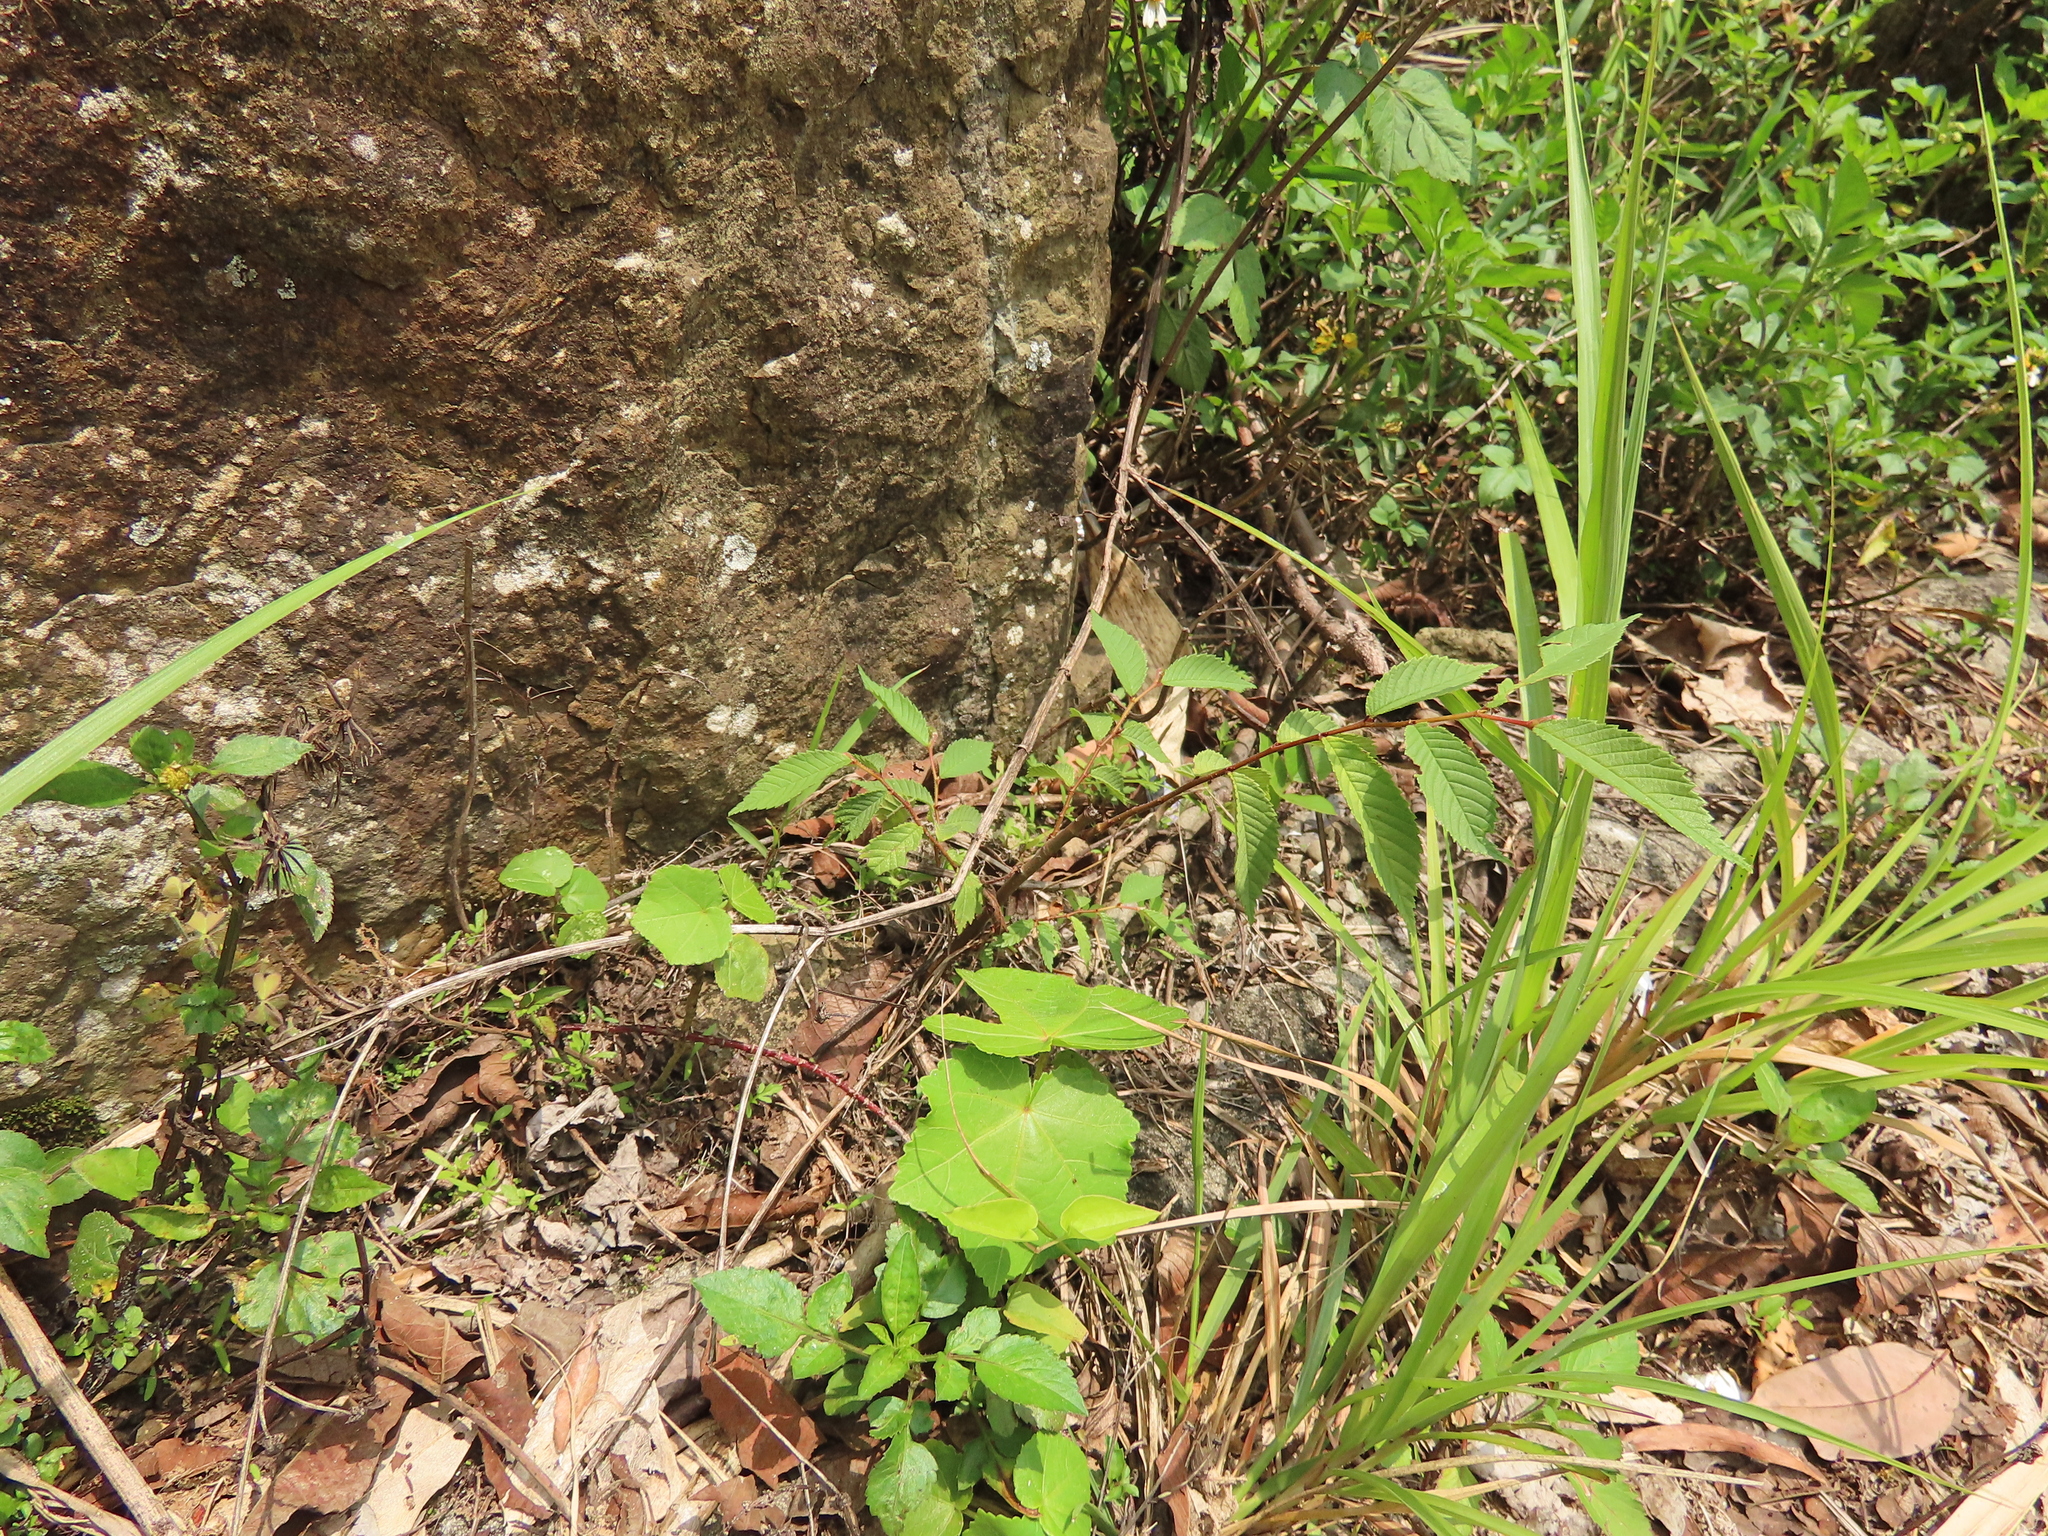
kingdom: Plantae
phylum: Tracheophyta
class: Magnoliopsida
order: Rosales
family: Ulmaceae
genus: Ulmus
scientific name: Ulmus uyematsui
